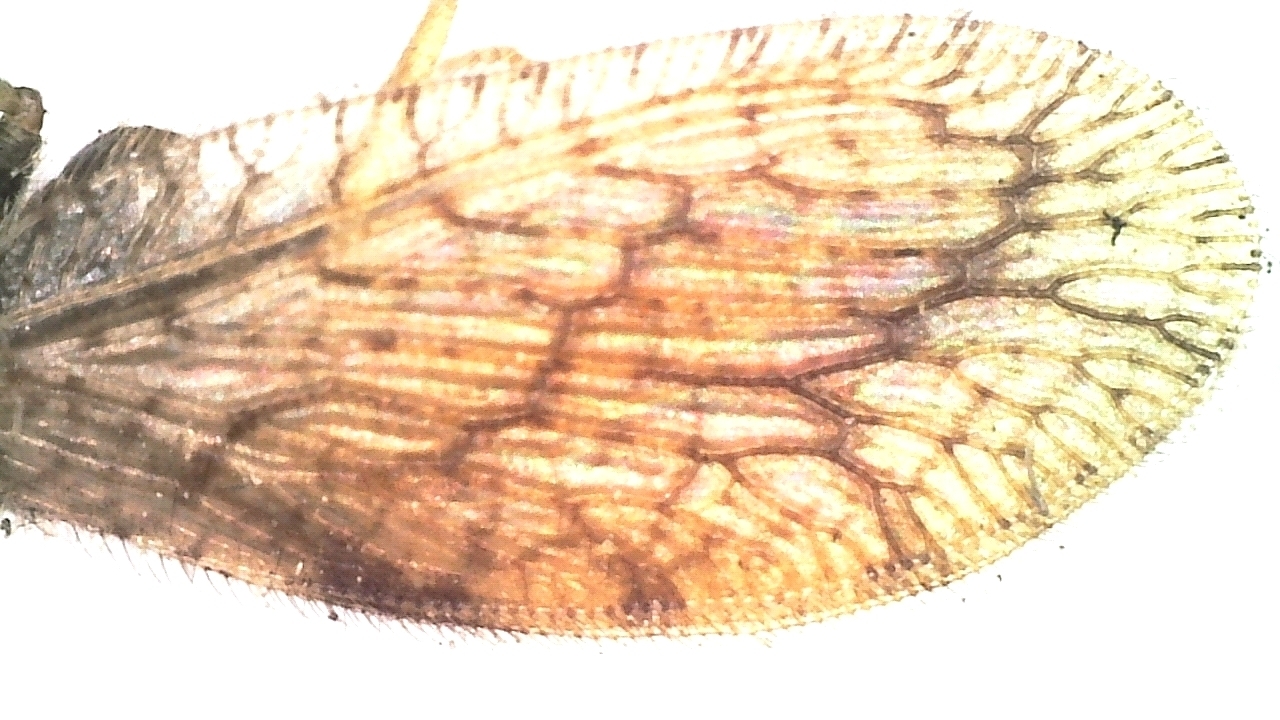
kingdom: Animalia
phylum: Arthropoda
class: Insecta
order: Neuroptera
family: Hemerobiidae
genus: Micromus
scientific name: Micromus angulatus
